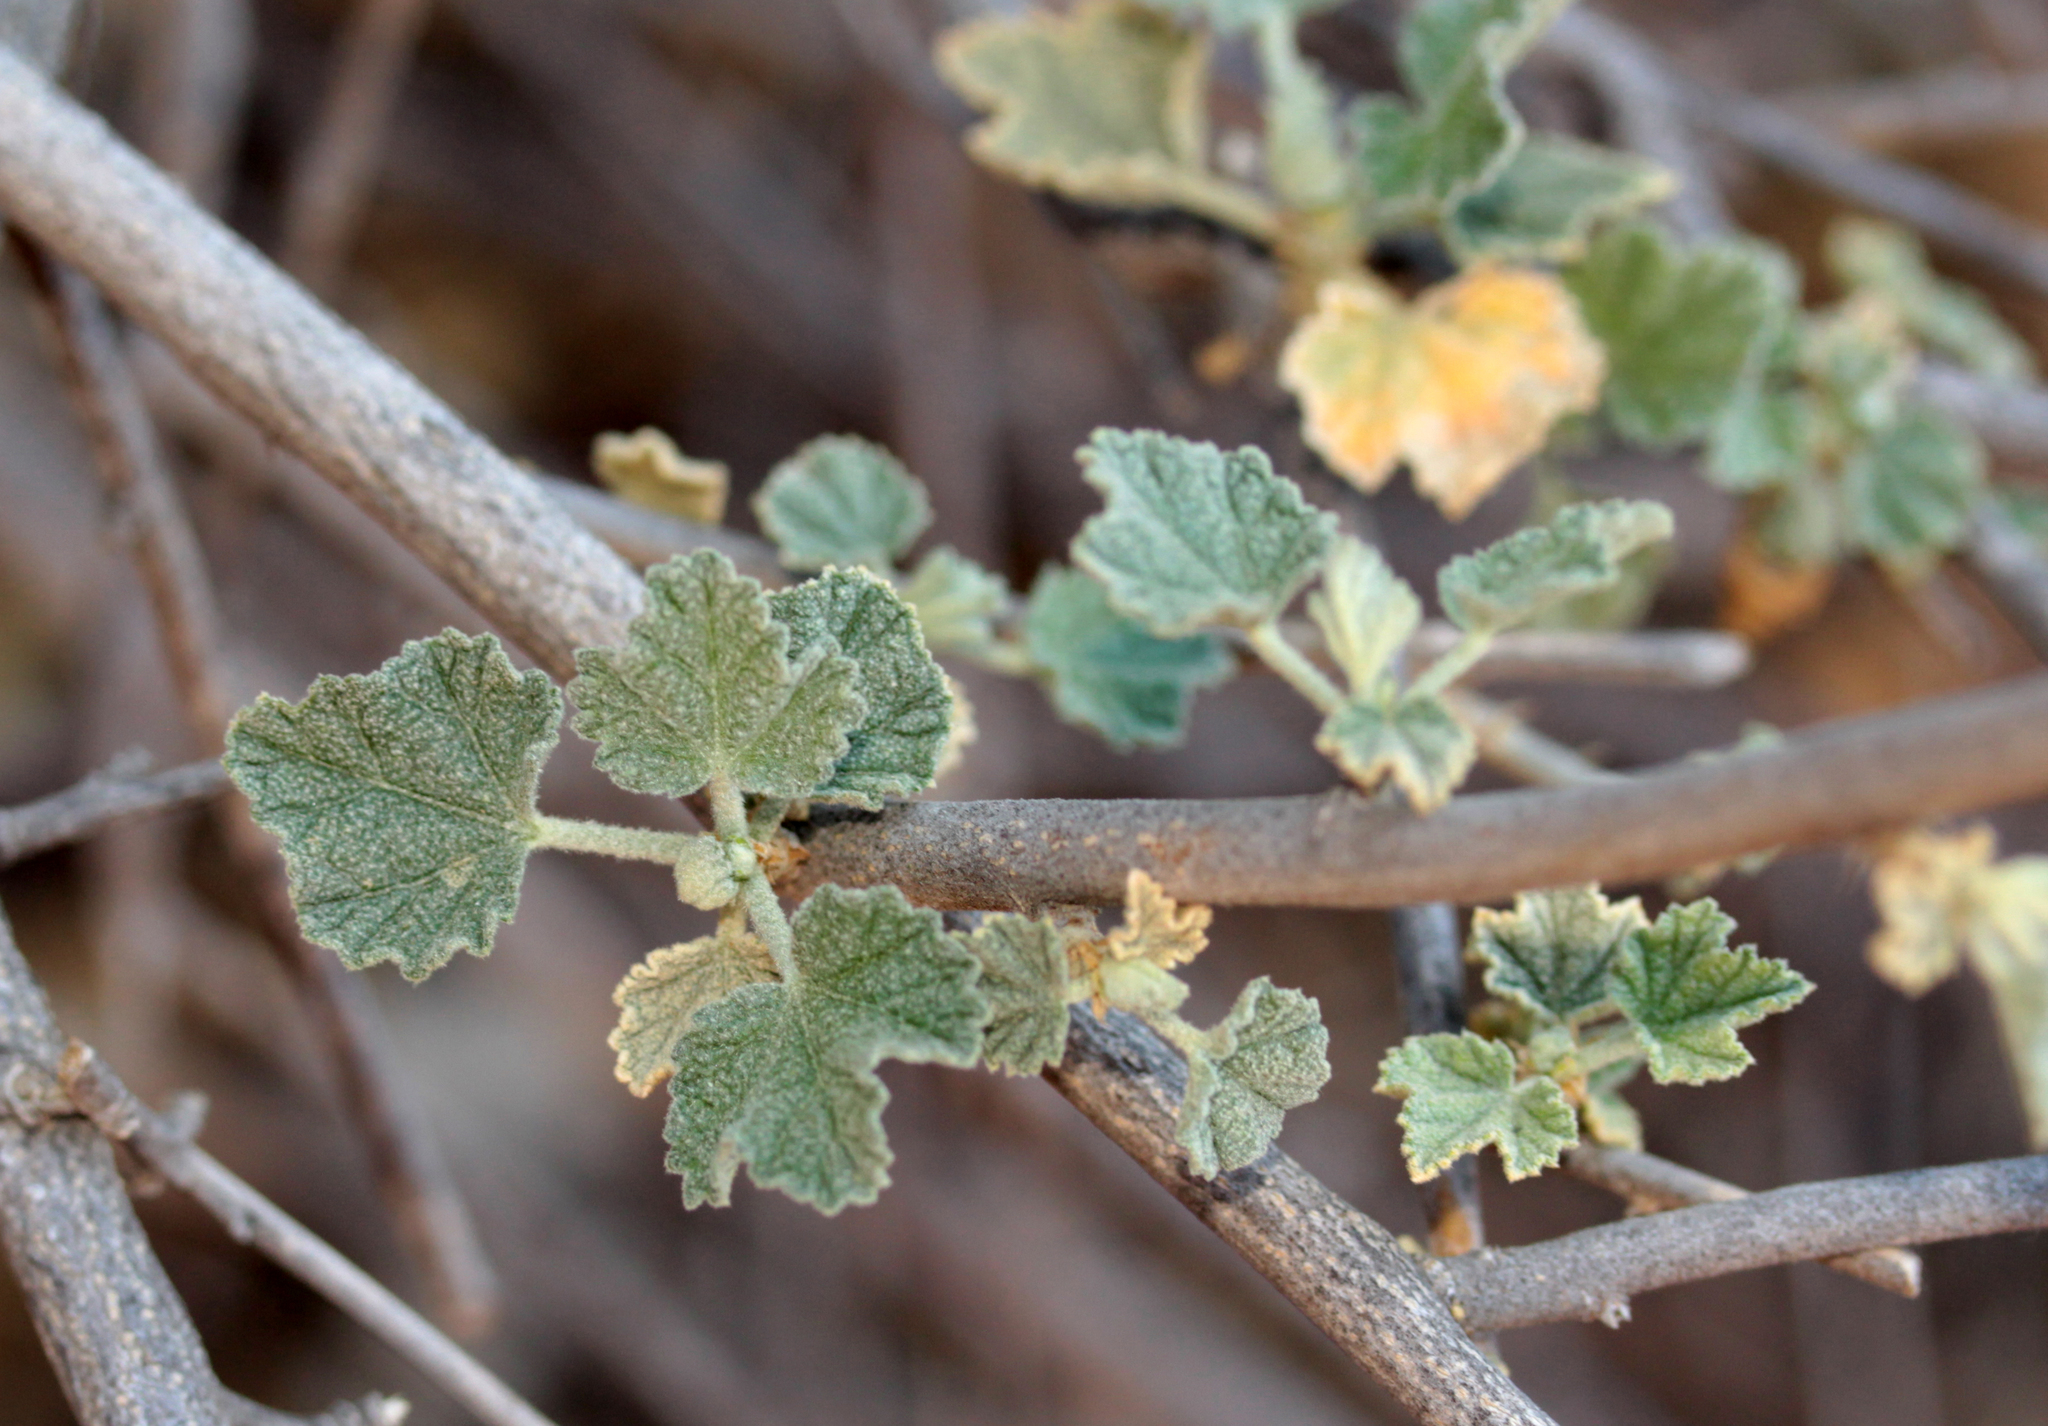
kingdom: Plantae
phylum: Tracheophyta
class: Magnoliopsida
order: Malvales
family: Malvaceae
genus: Malacothamnus
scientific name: Malacothamnus fasciculatus
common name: Sant cruz island bush-mallow
